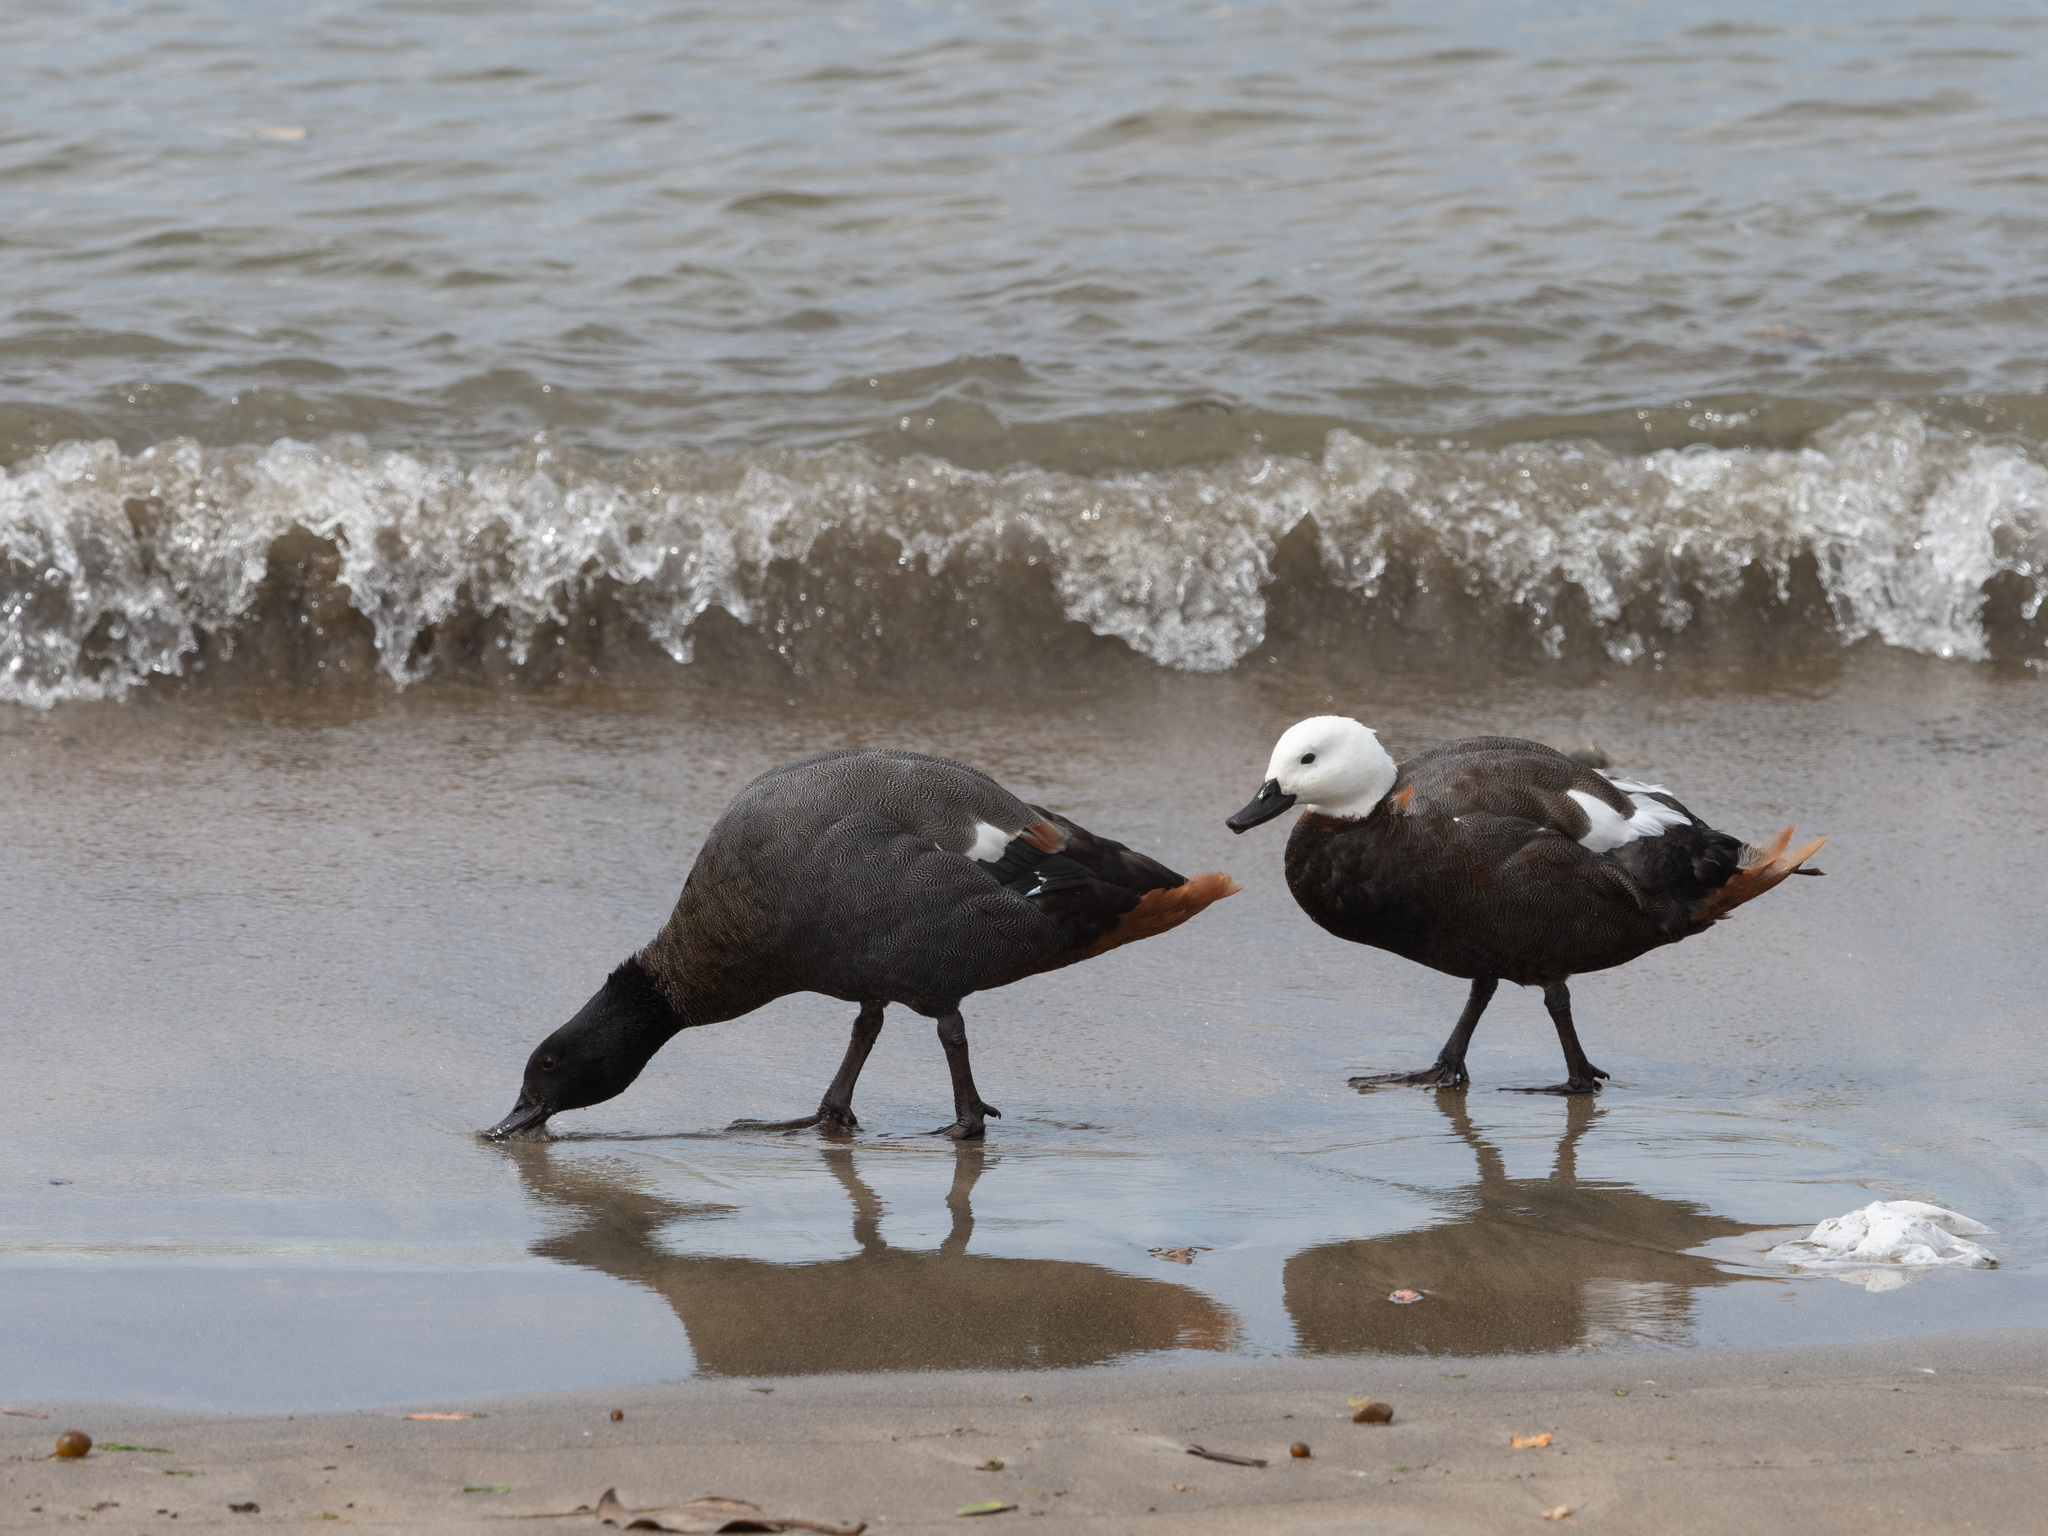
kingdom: Animalia
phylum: Chordata
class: Aves
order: Anseriformes
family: Anatidae
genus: Tadorna
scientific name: Tadorna variegata
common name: Paradise shelduck
